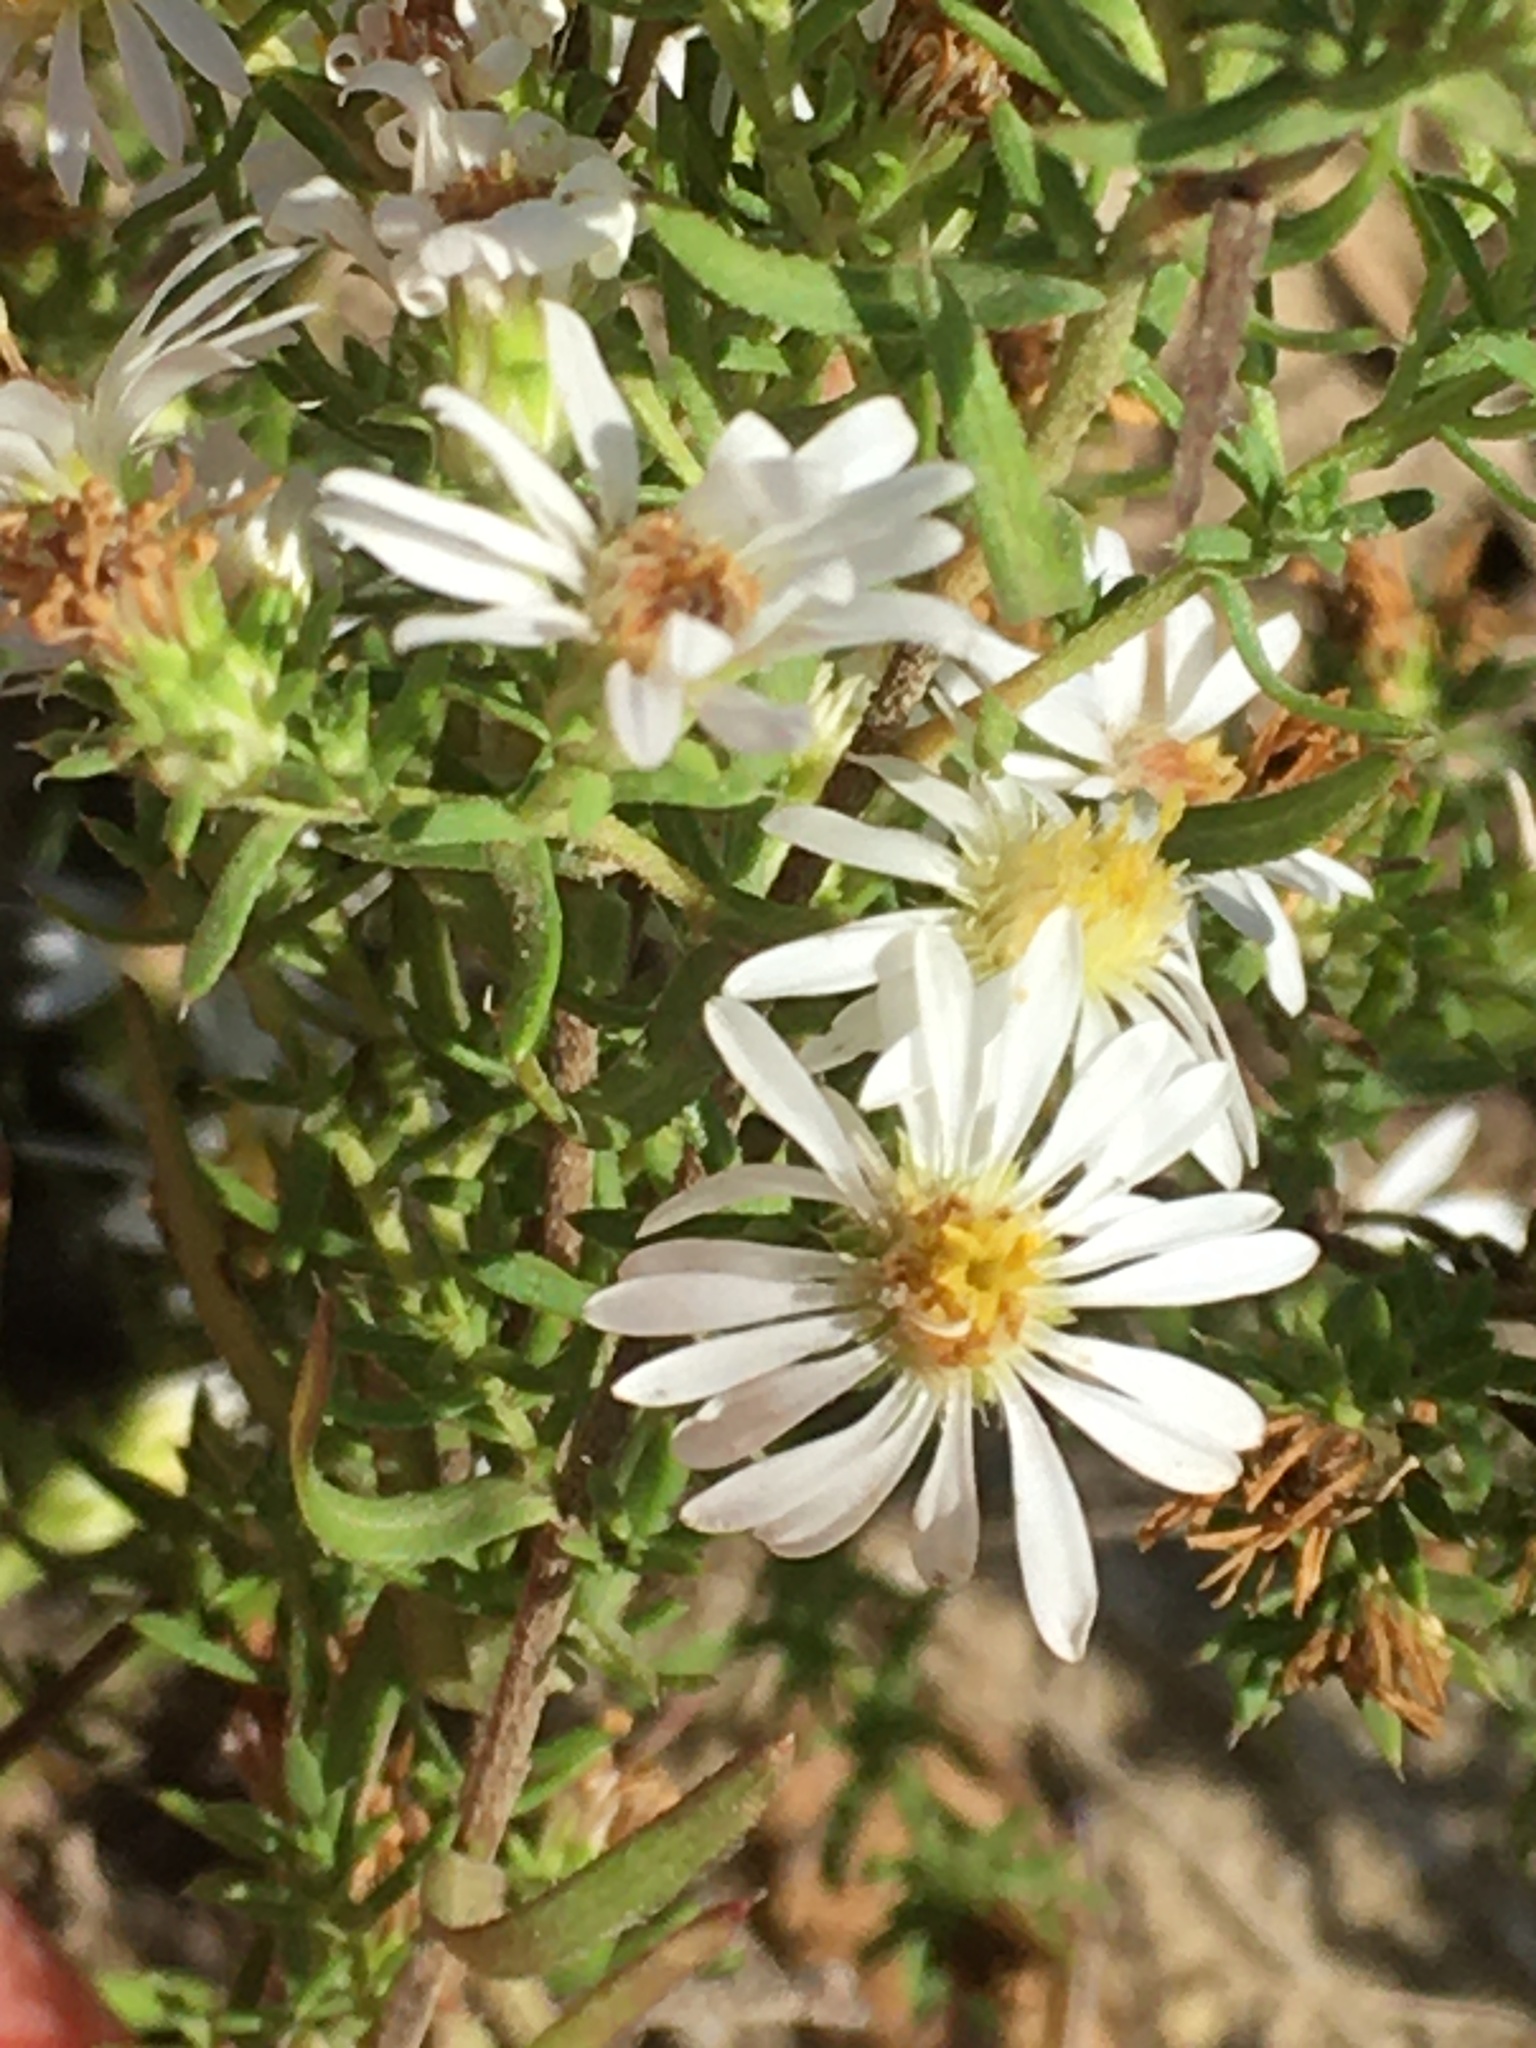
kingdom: Plantae
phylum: Tracheophyta
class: Magnoliopsida
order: Asterales
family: Asteraceae
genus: Symphyotrichum
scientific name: Symphyotrichum ericoides
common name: Heath aster
